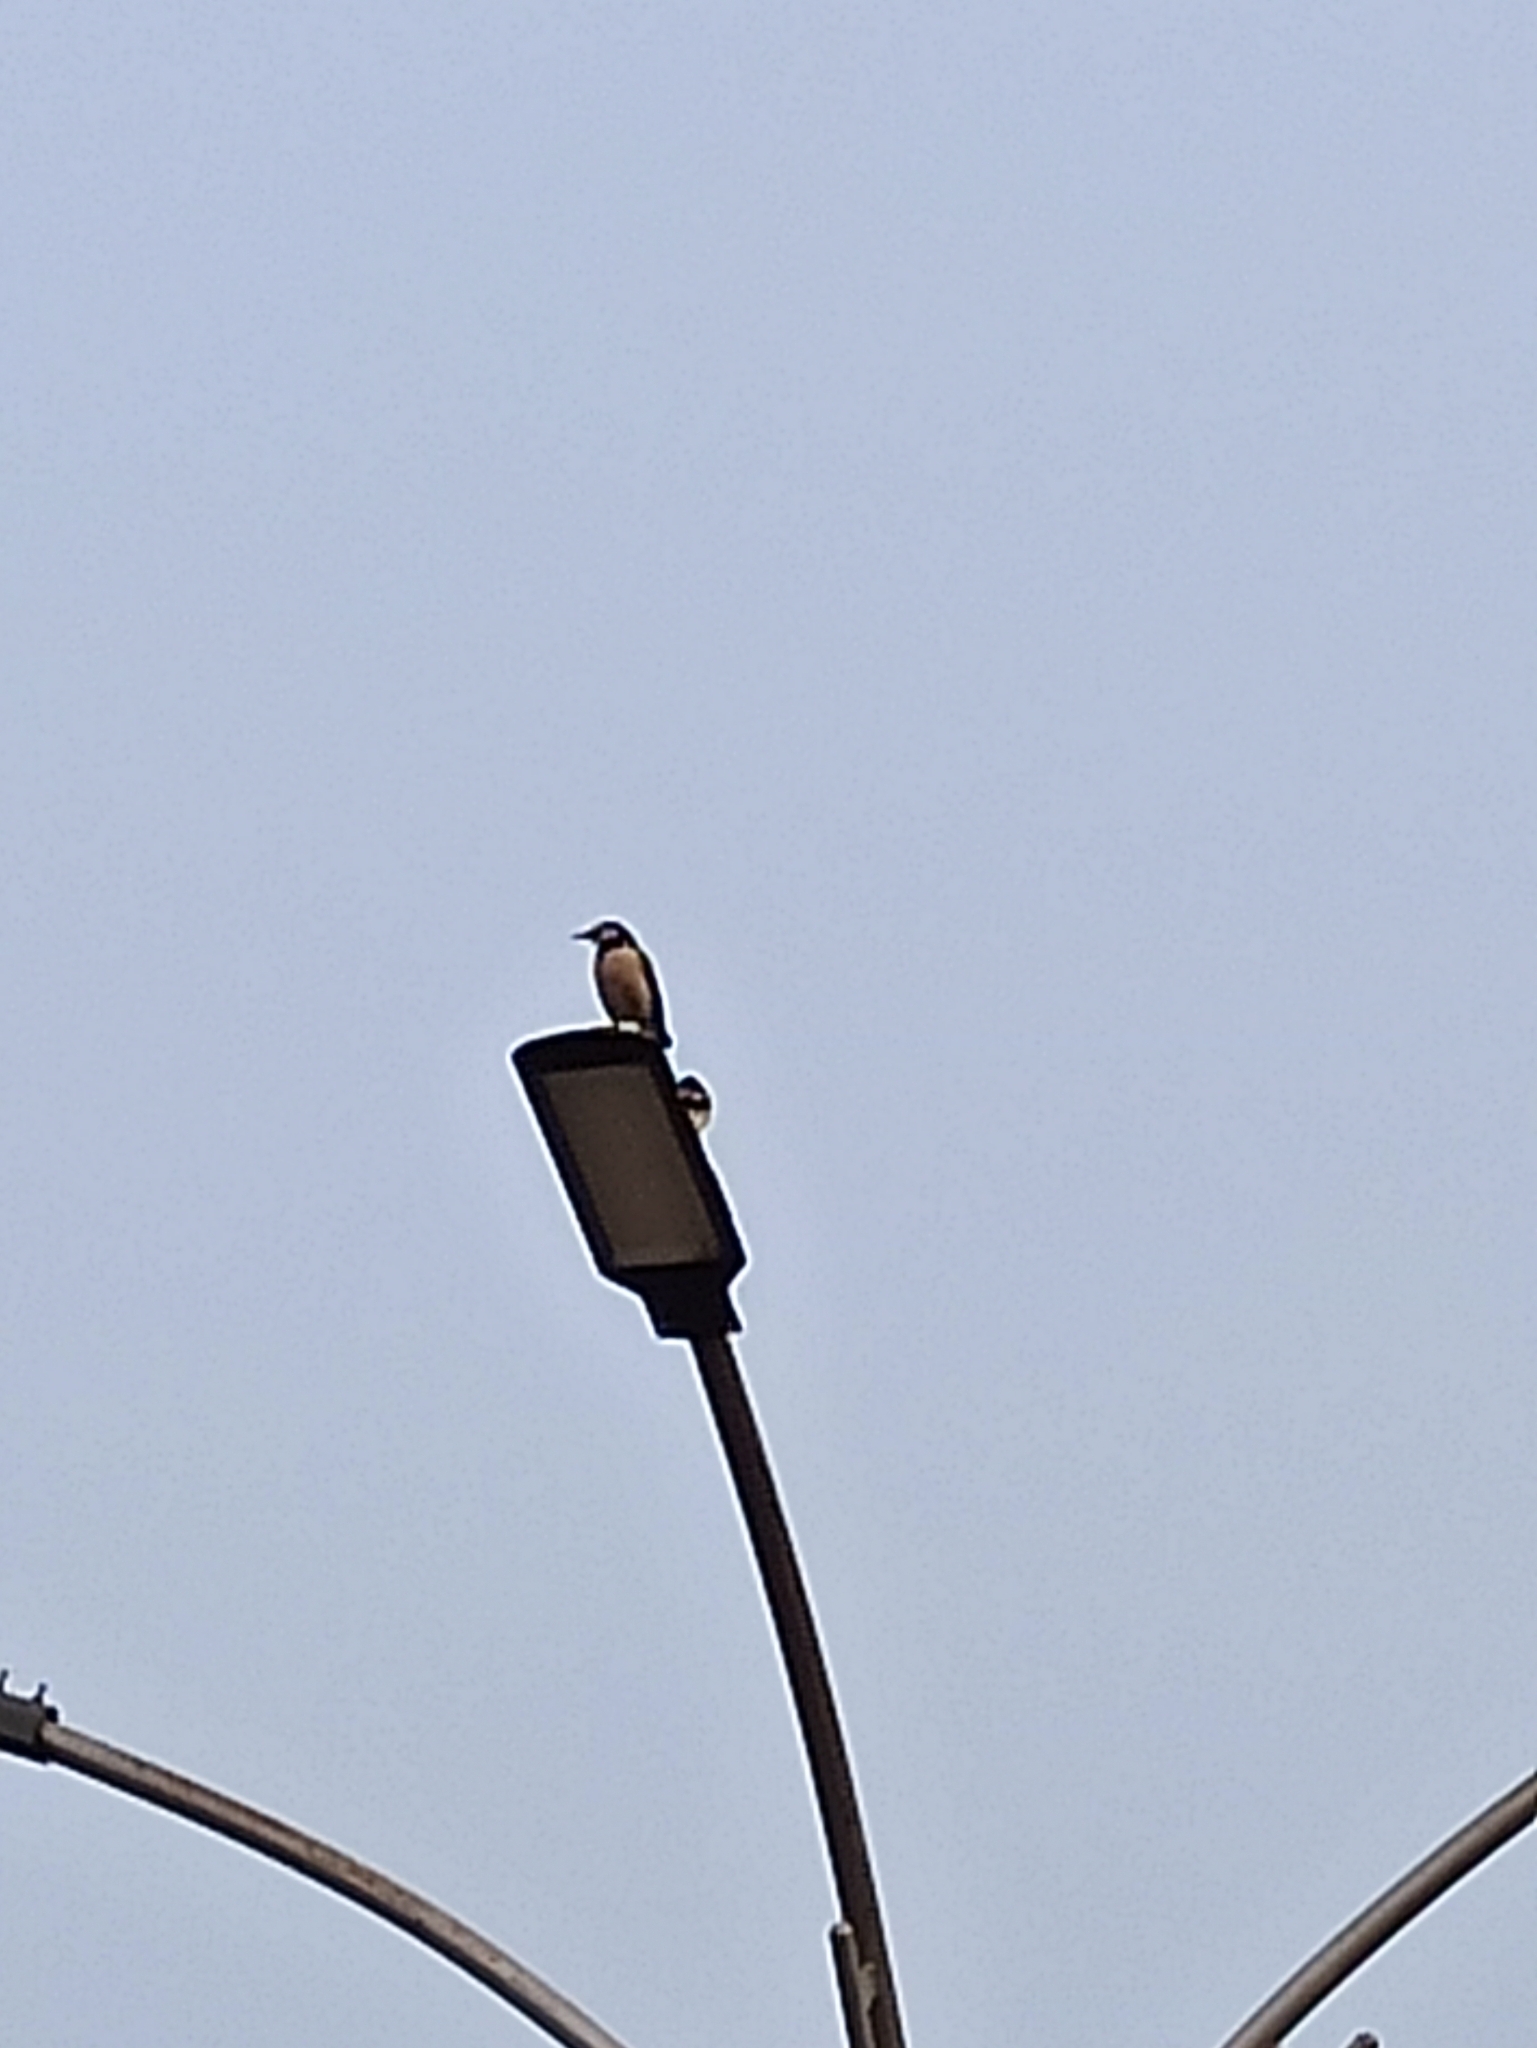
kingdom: Animalia
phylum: Chordata
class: Aves
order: Passeriformes
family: Sturnidae
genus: Gracupica
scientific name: Gracupica contra
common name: Pied myna
